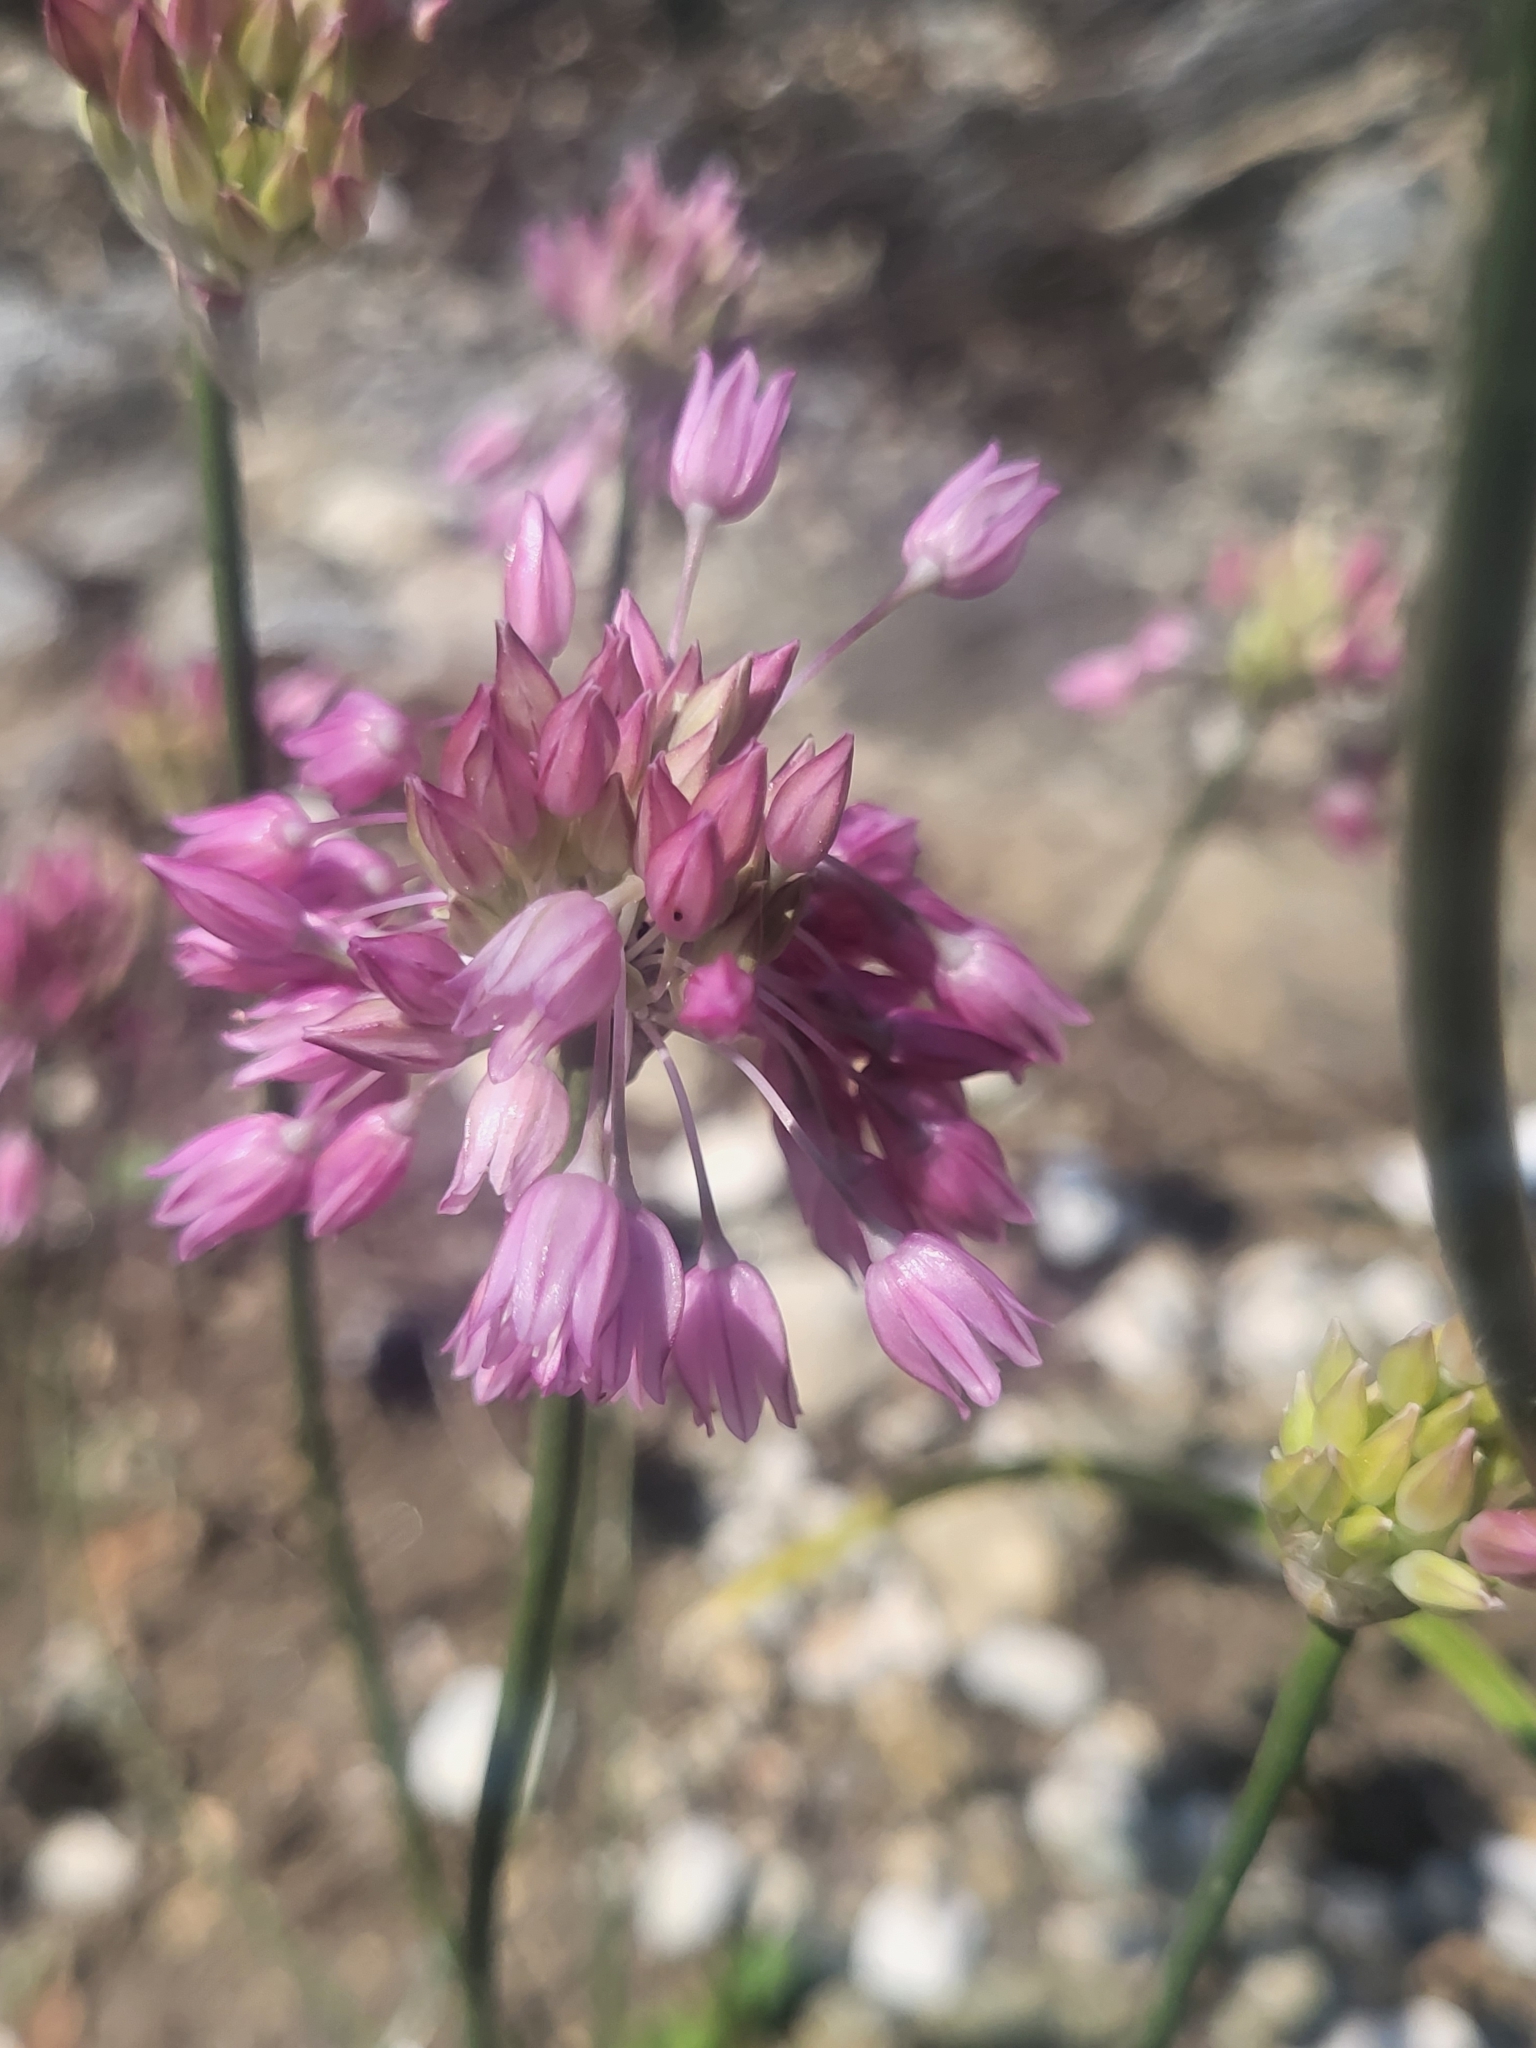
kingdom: Plantae
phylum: Tracheophyta
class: Liliopsida
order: Asparagales
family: Amaryllidaceae
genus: Allium
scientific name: Allium meteoricum
